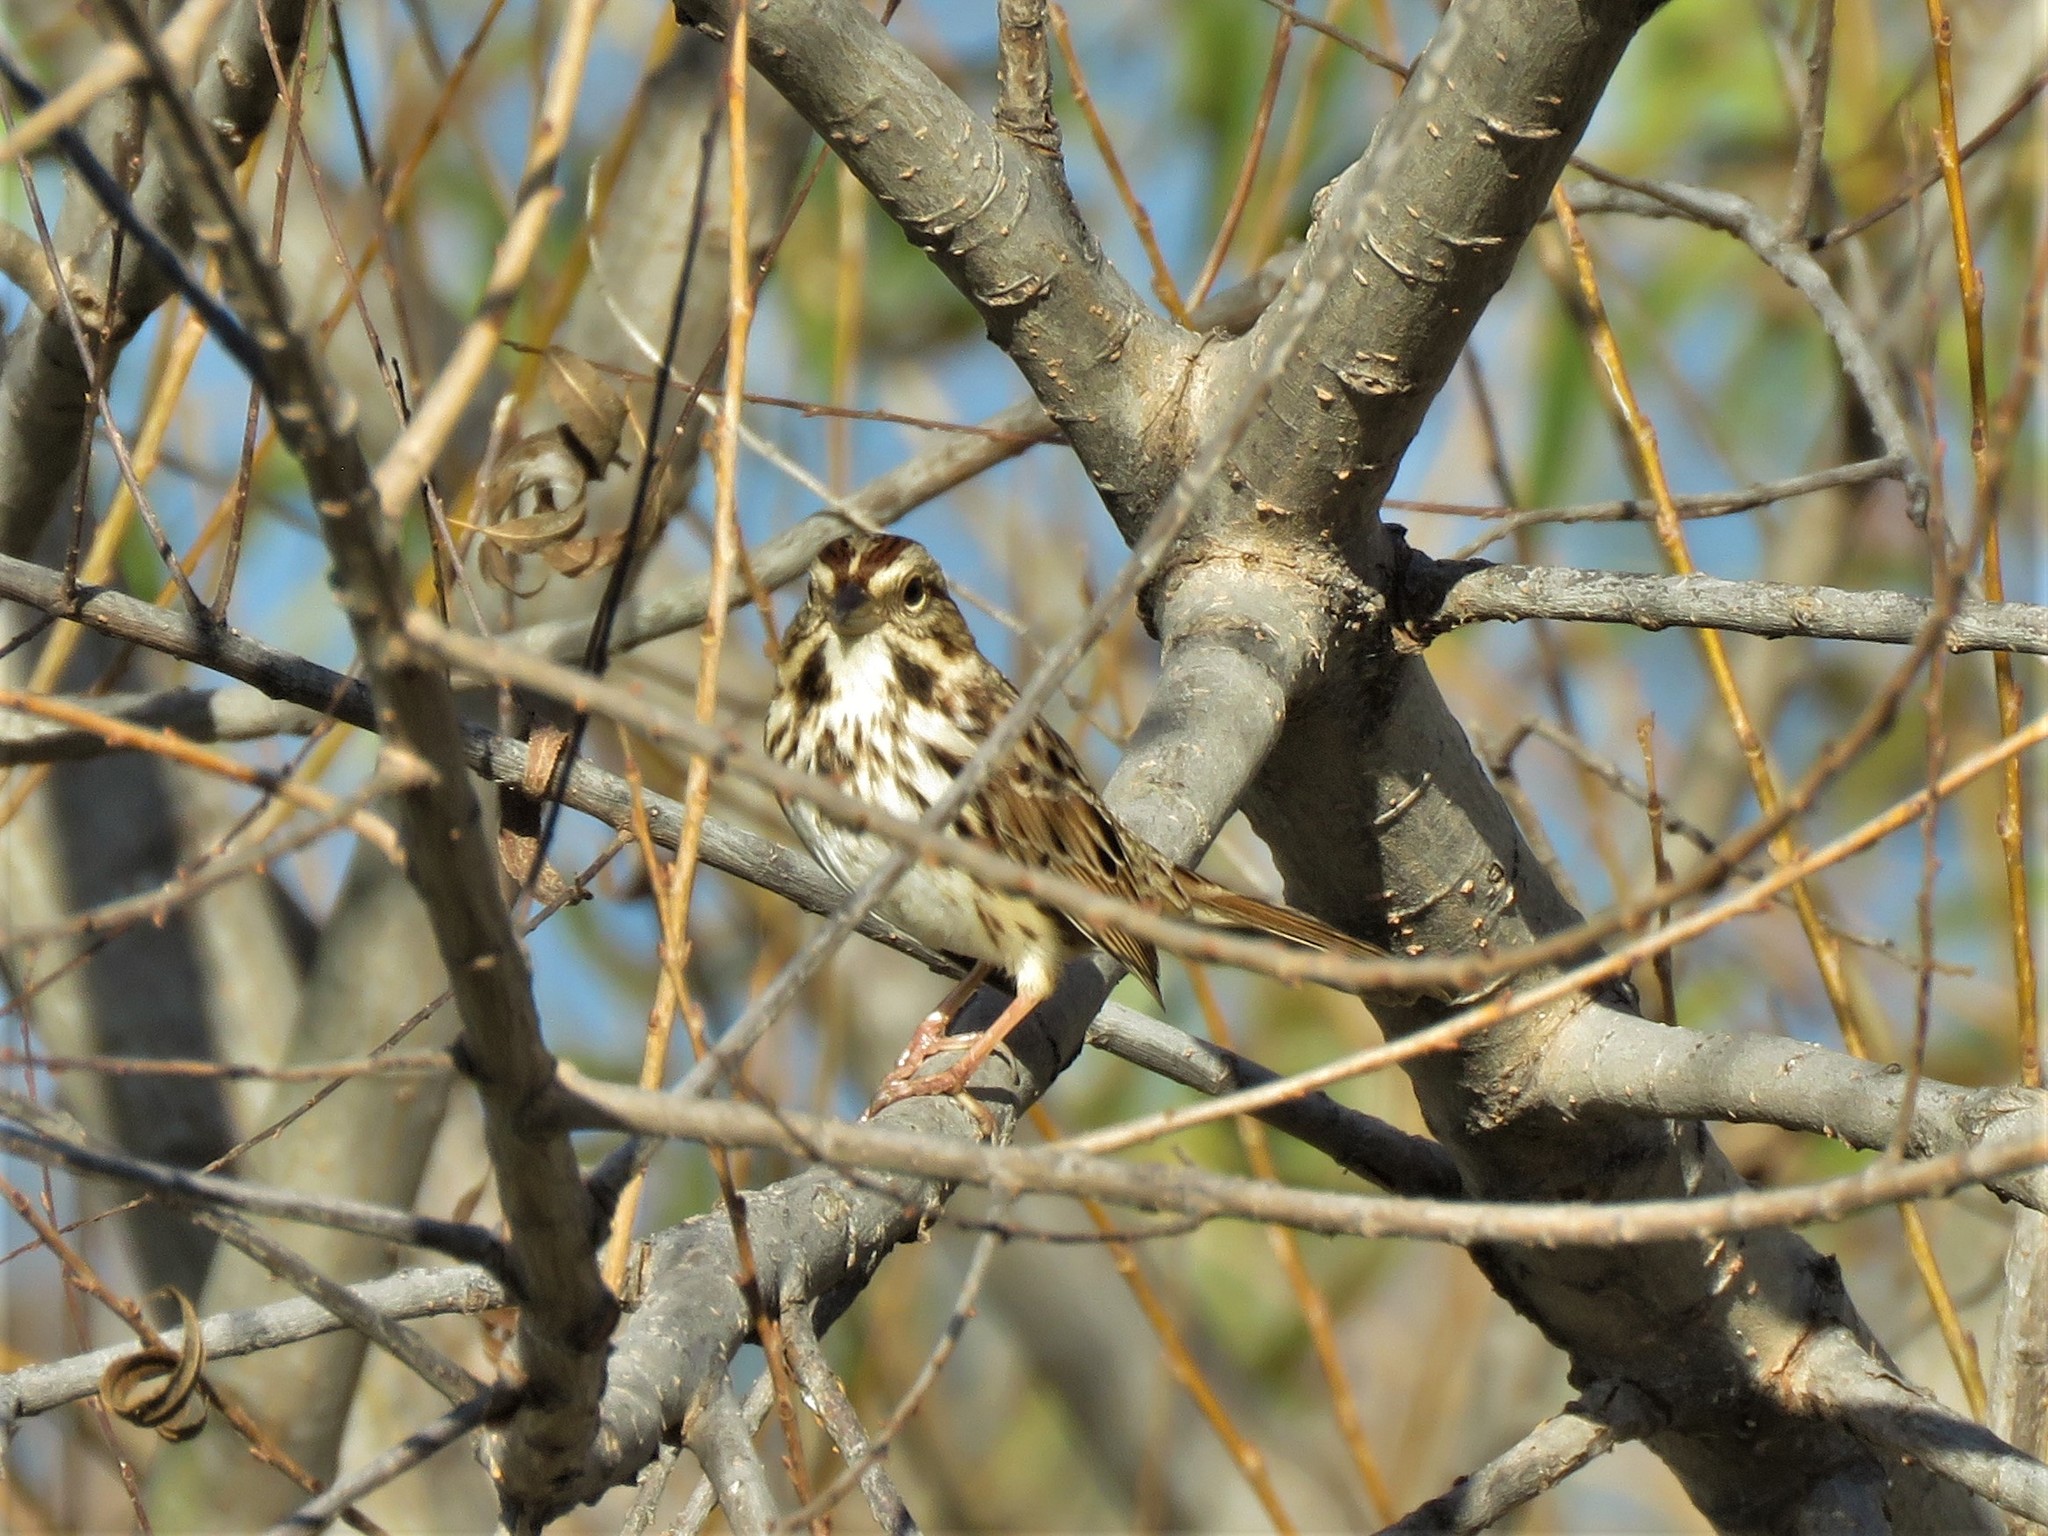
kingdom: Animalia
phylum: Chordata
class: Aves
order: Passeriformes
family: Passerellidae
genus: Melospiza
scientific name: Melospiza melodia
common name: Song sparrow
